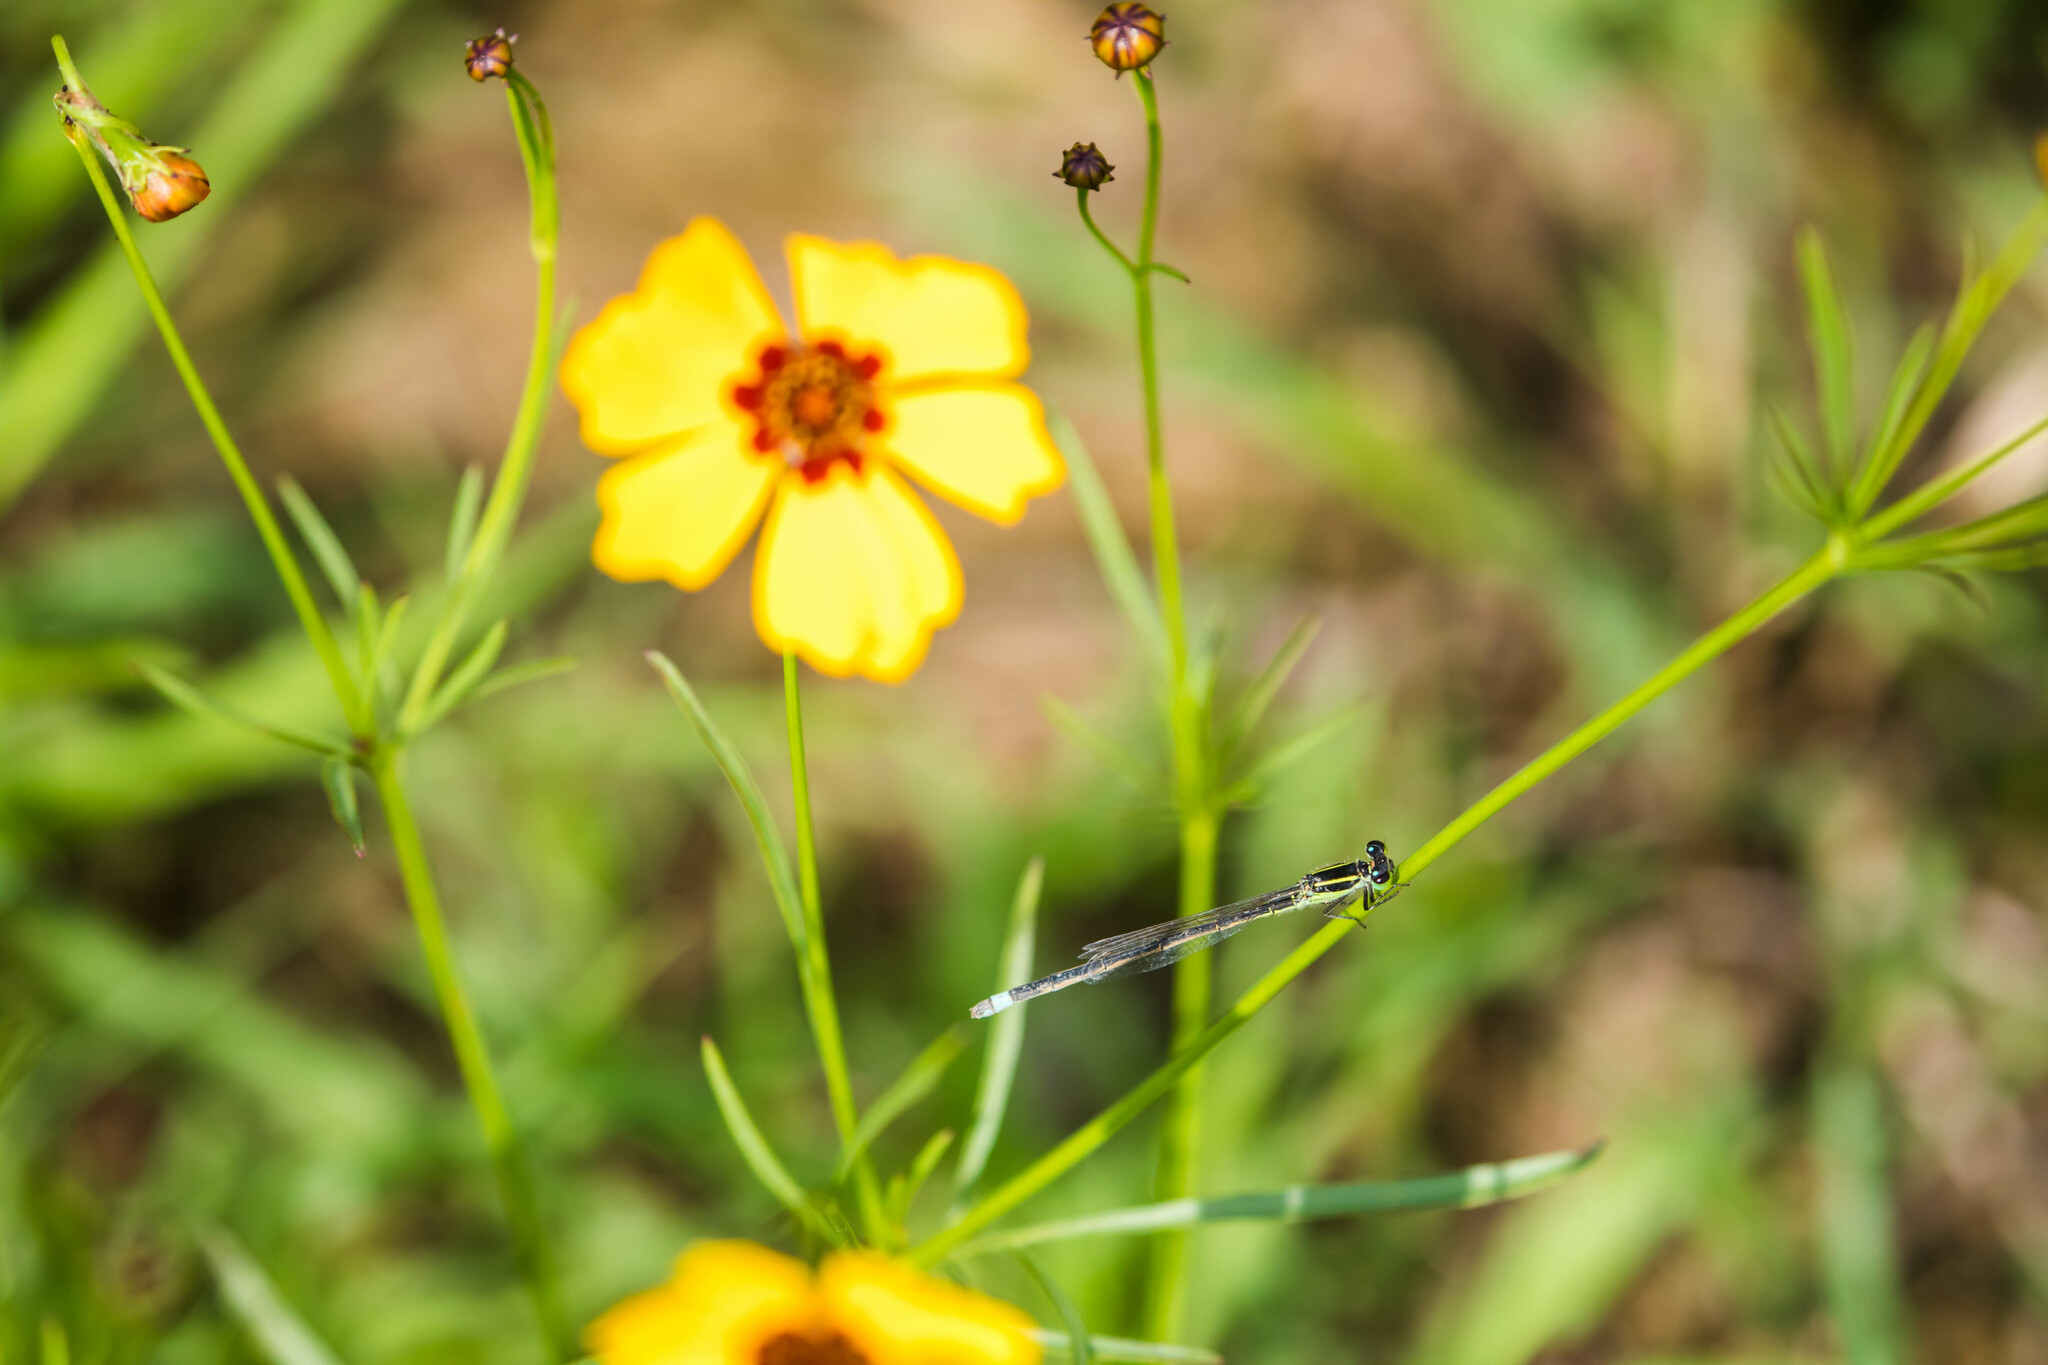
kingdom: Animalia
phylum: Arthropoda
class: Insecta
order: Odonata
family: Coenagrionidae
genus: Ischnura
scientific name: Ischnura ramburii
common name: Rambur's forktail
